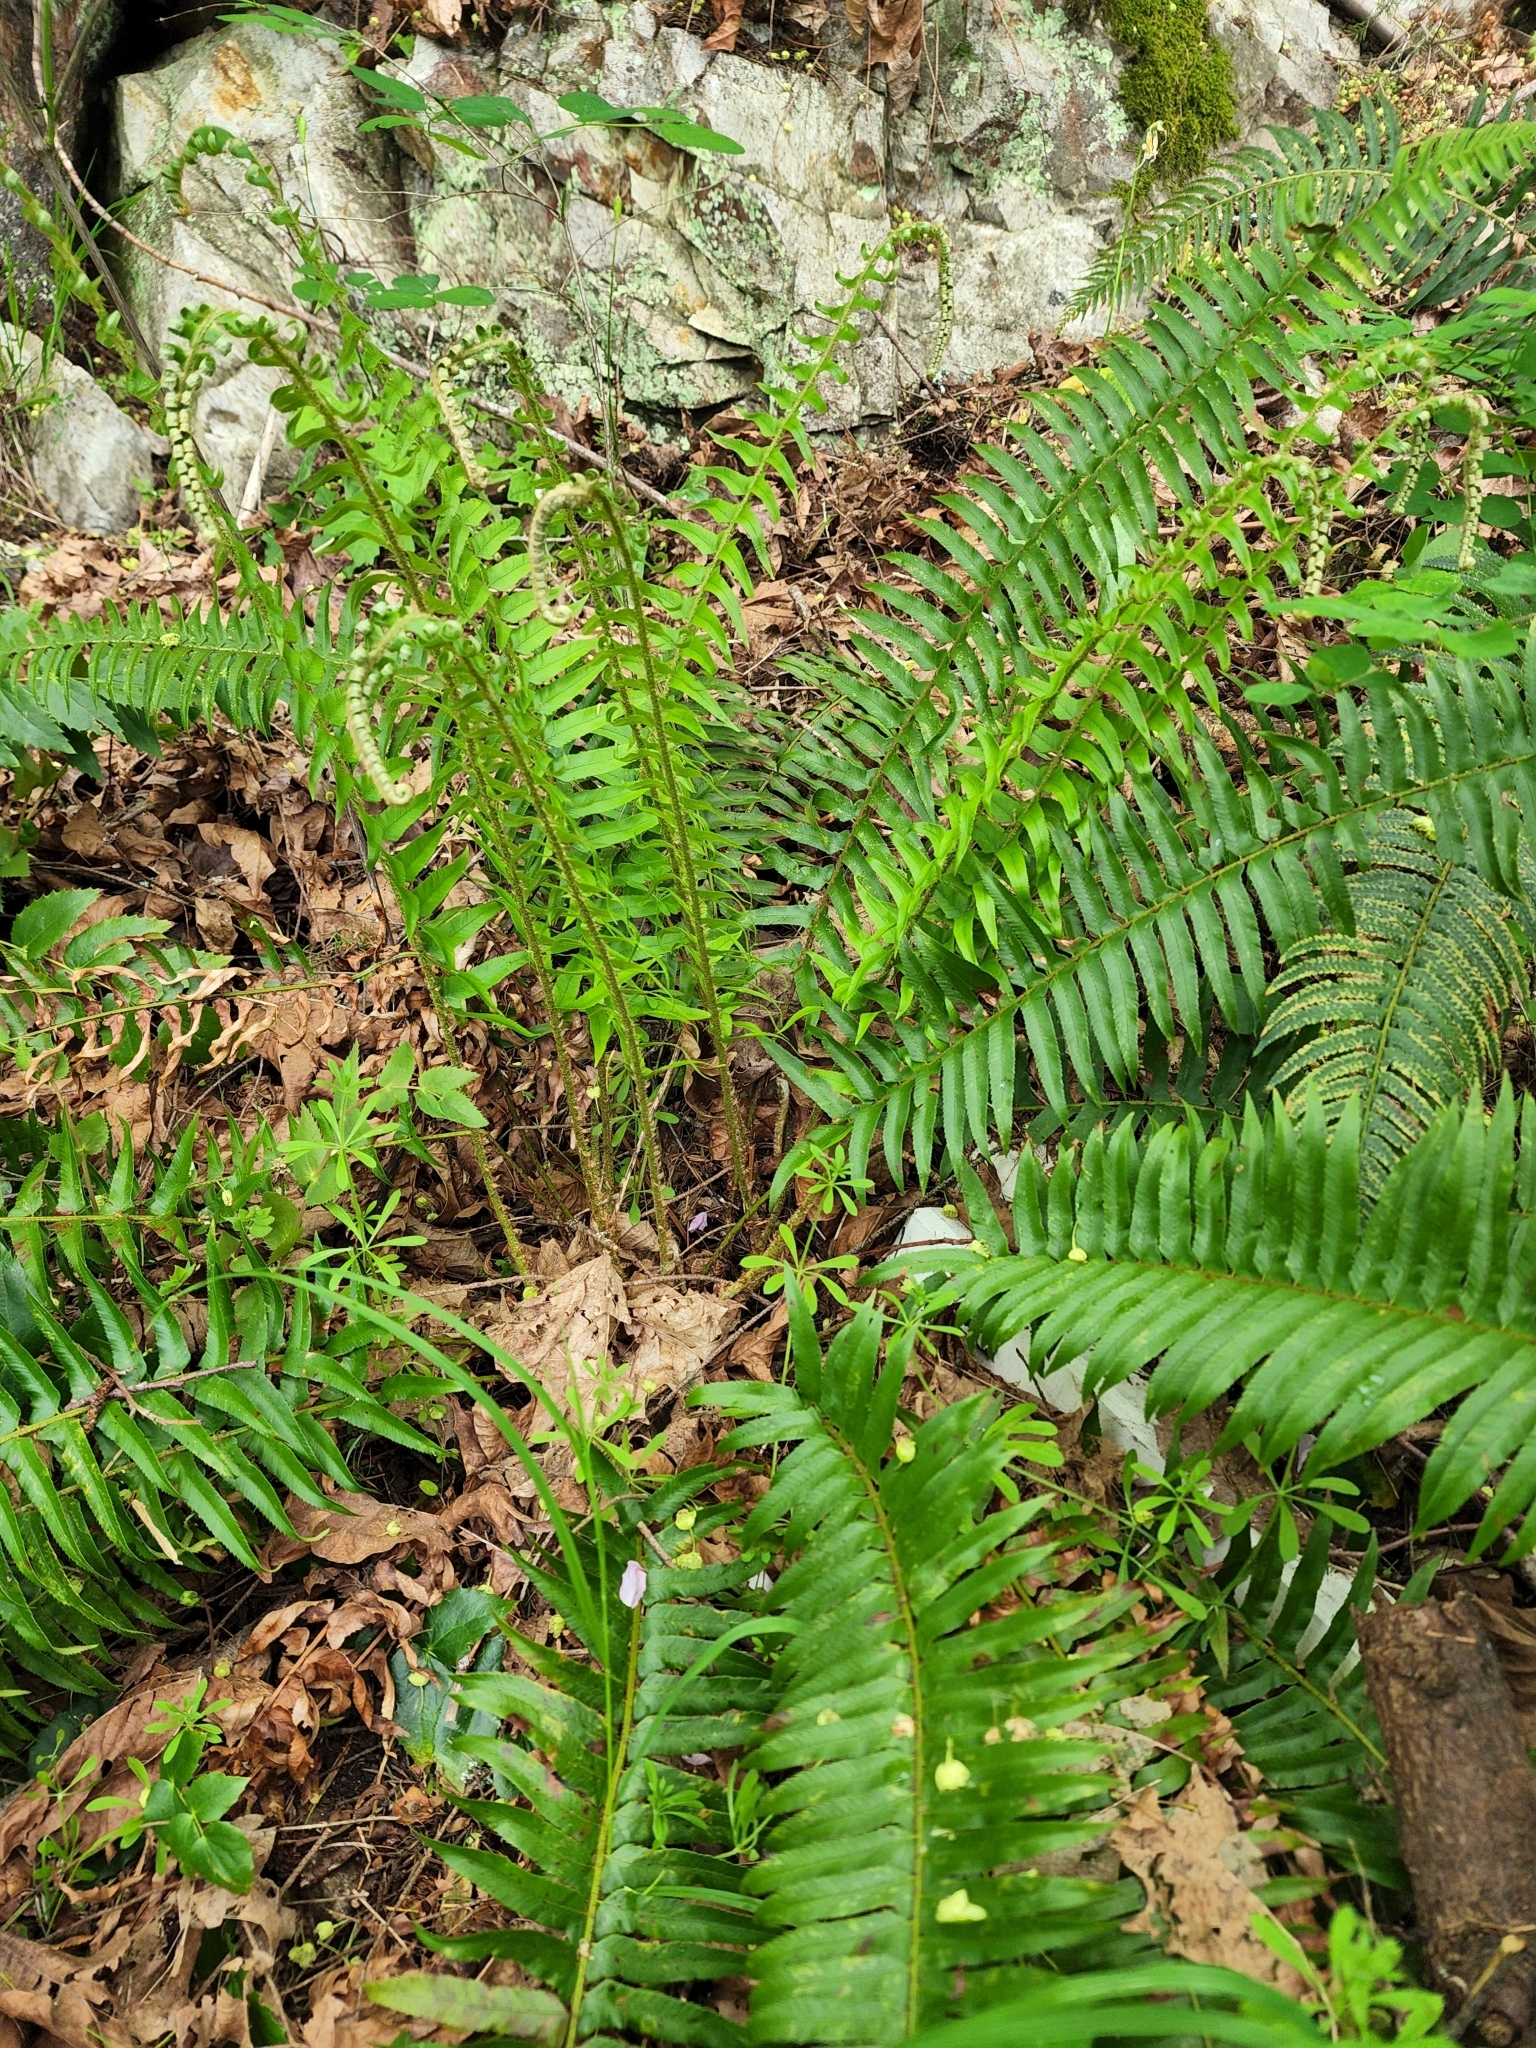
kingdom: Plantae
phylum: Tracheophyta
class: Polypodiopsida
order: Polypodiales
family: Dryopteridaceae
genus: Polystichum
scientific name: Polystichum munitum
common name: Western sword-fern
